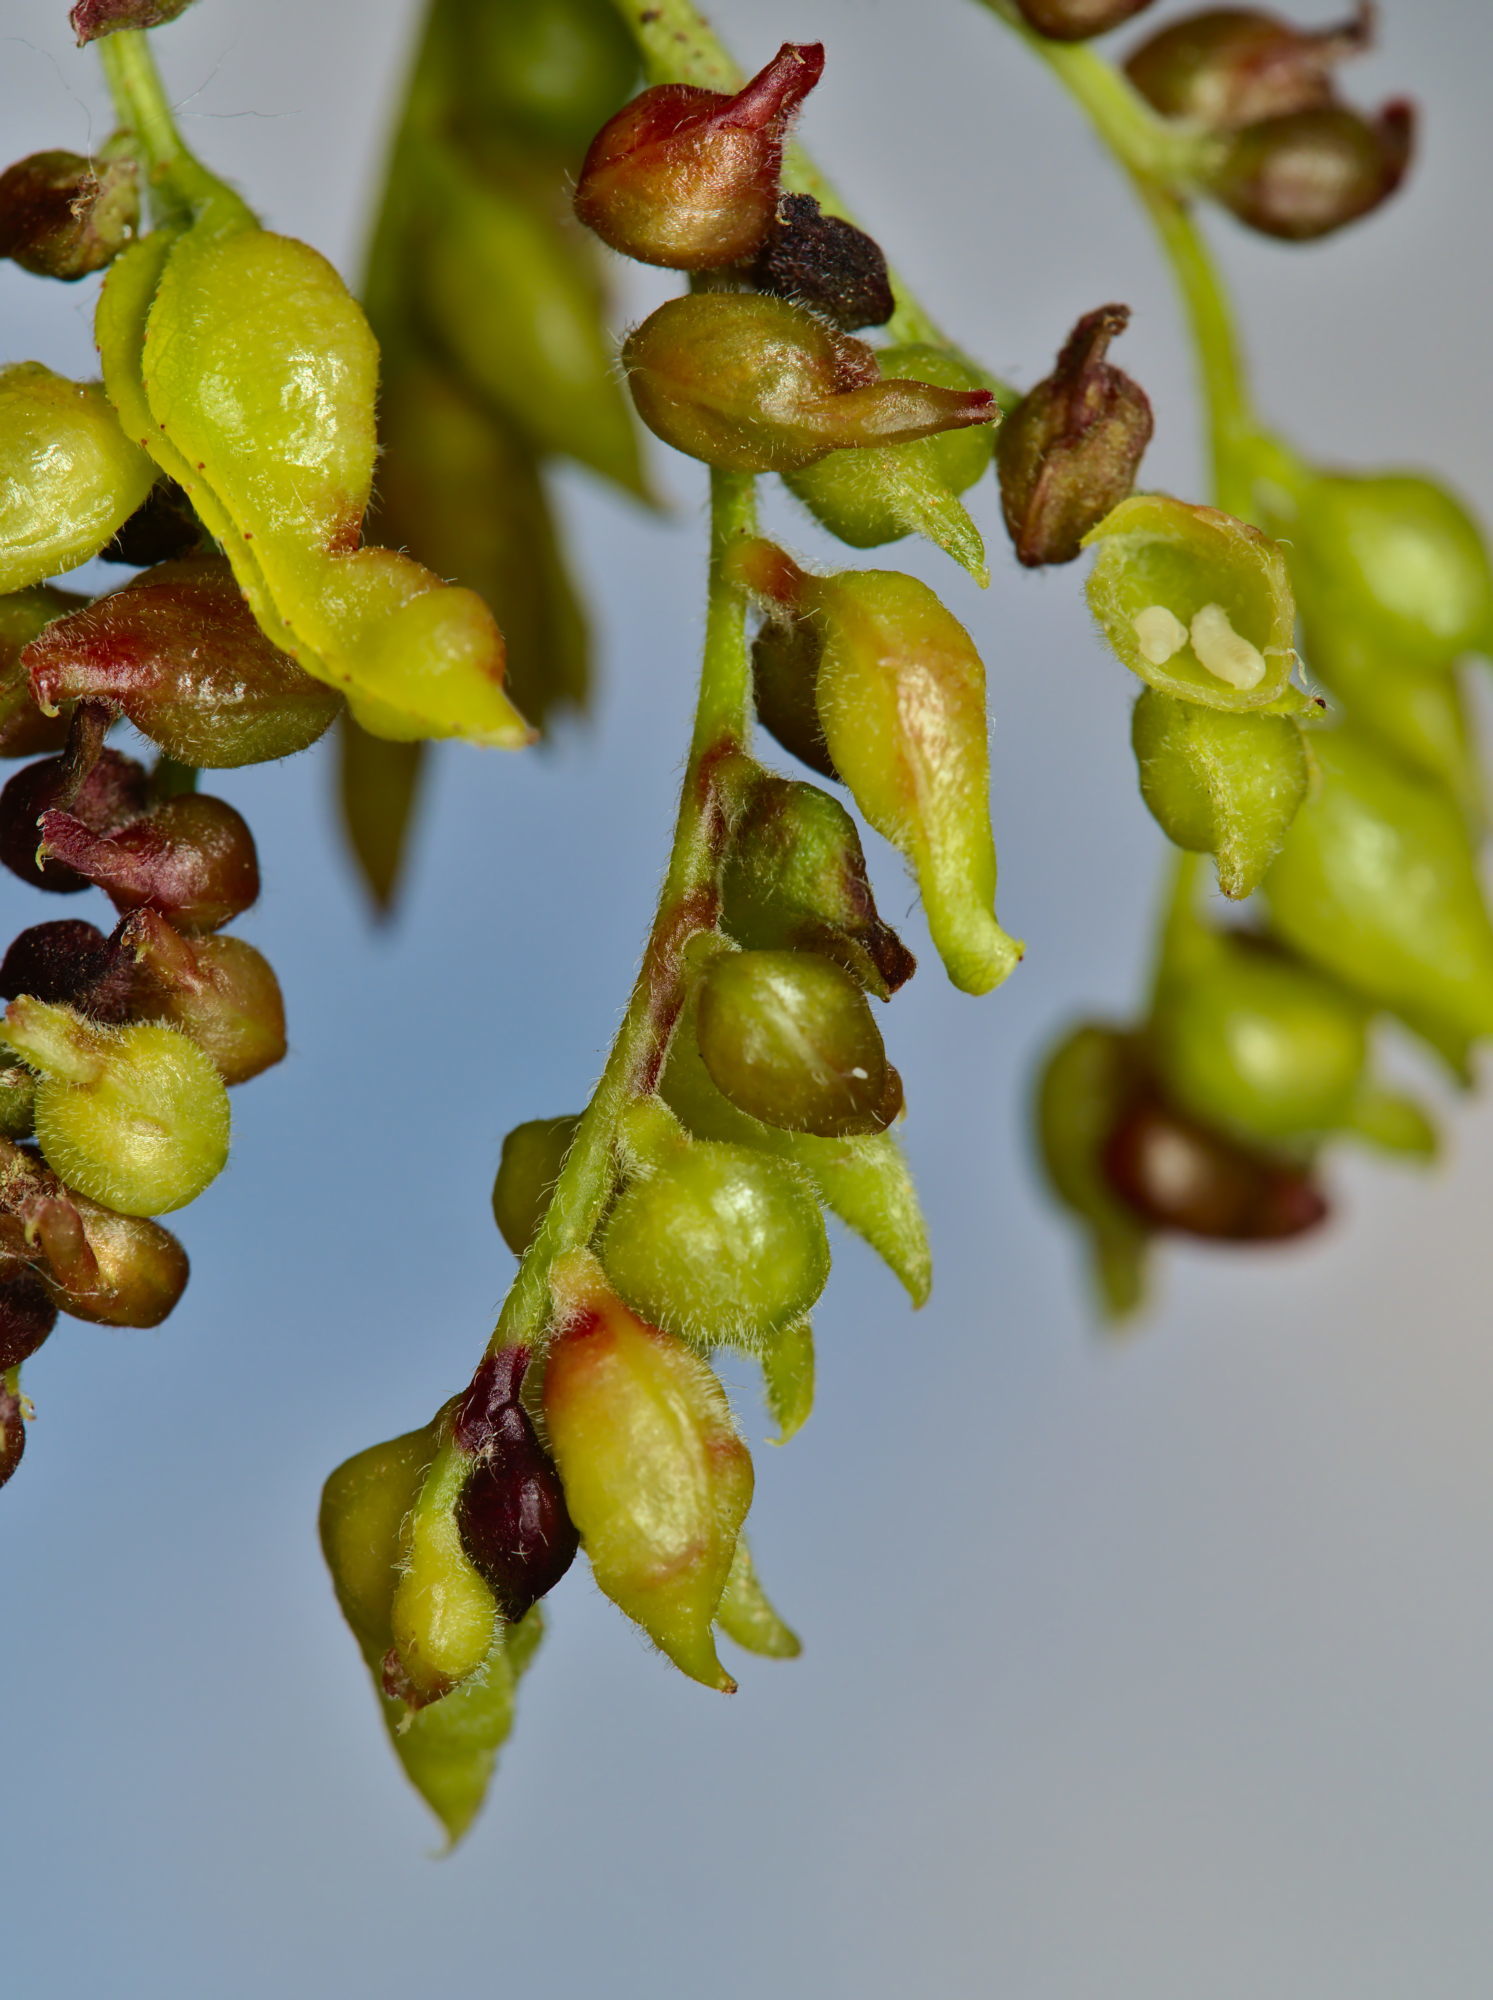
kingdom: Animalia
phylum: Arthropoda
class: Insecta
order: Diptera
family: Cecidomyiidae
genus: Dasineura
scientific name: Dasineura gleditchiae
